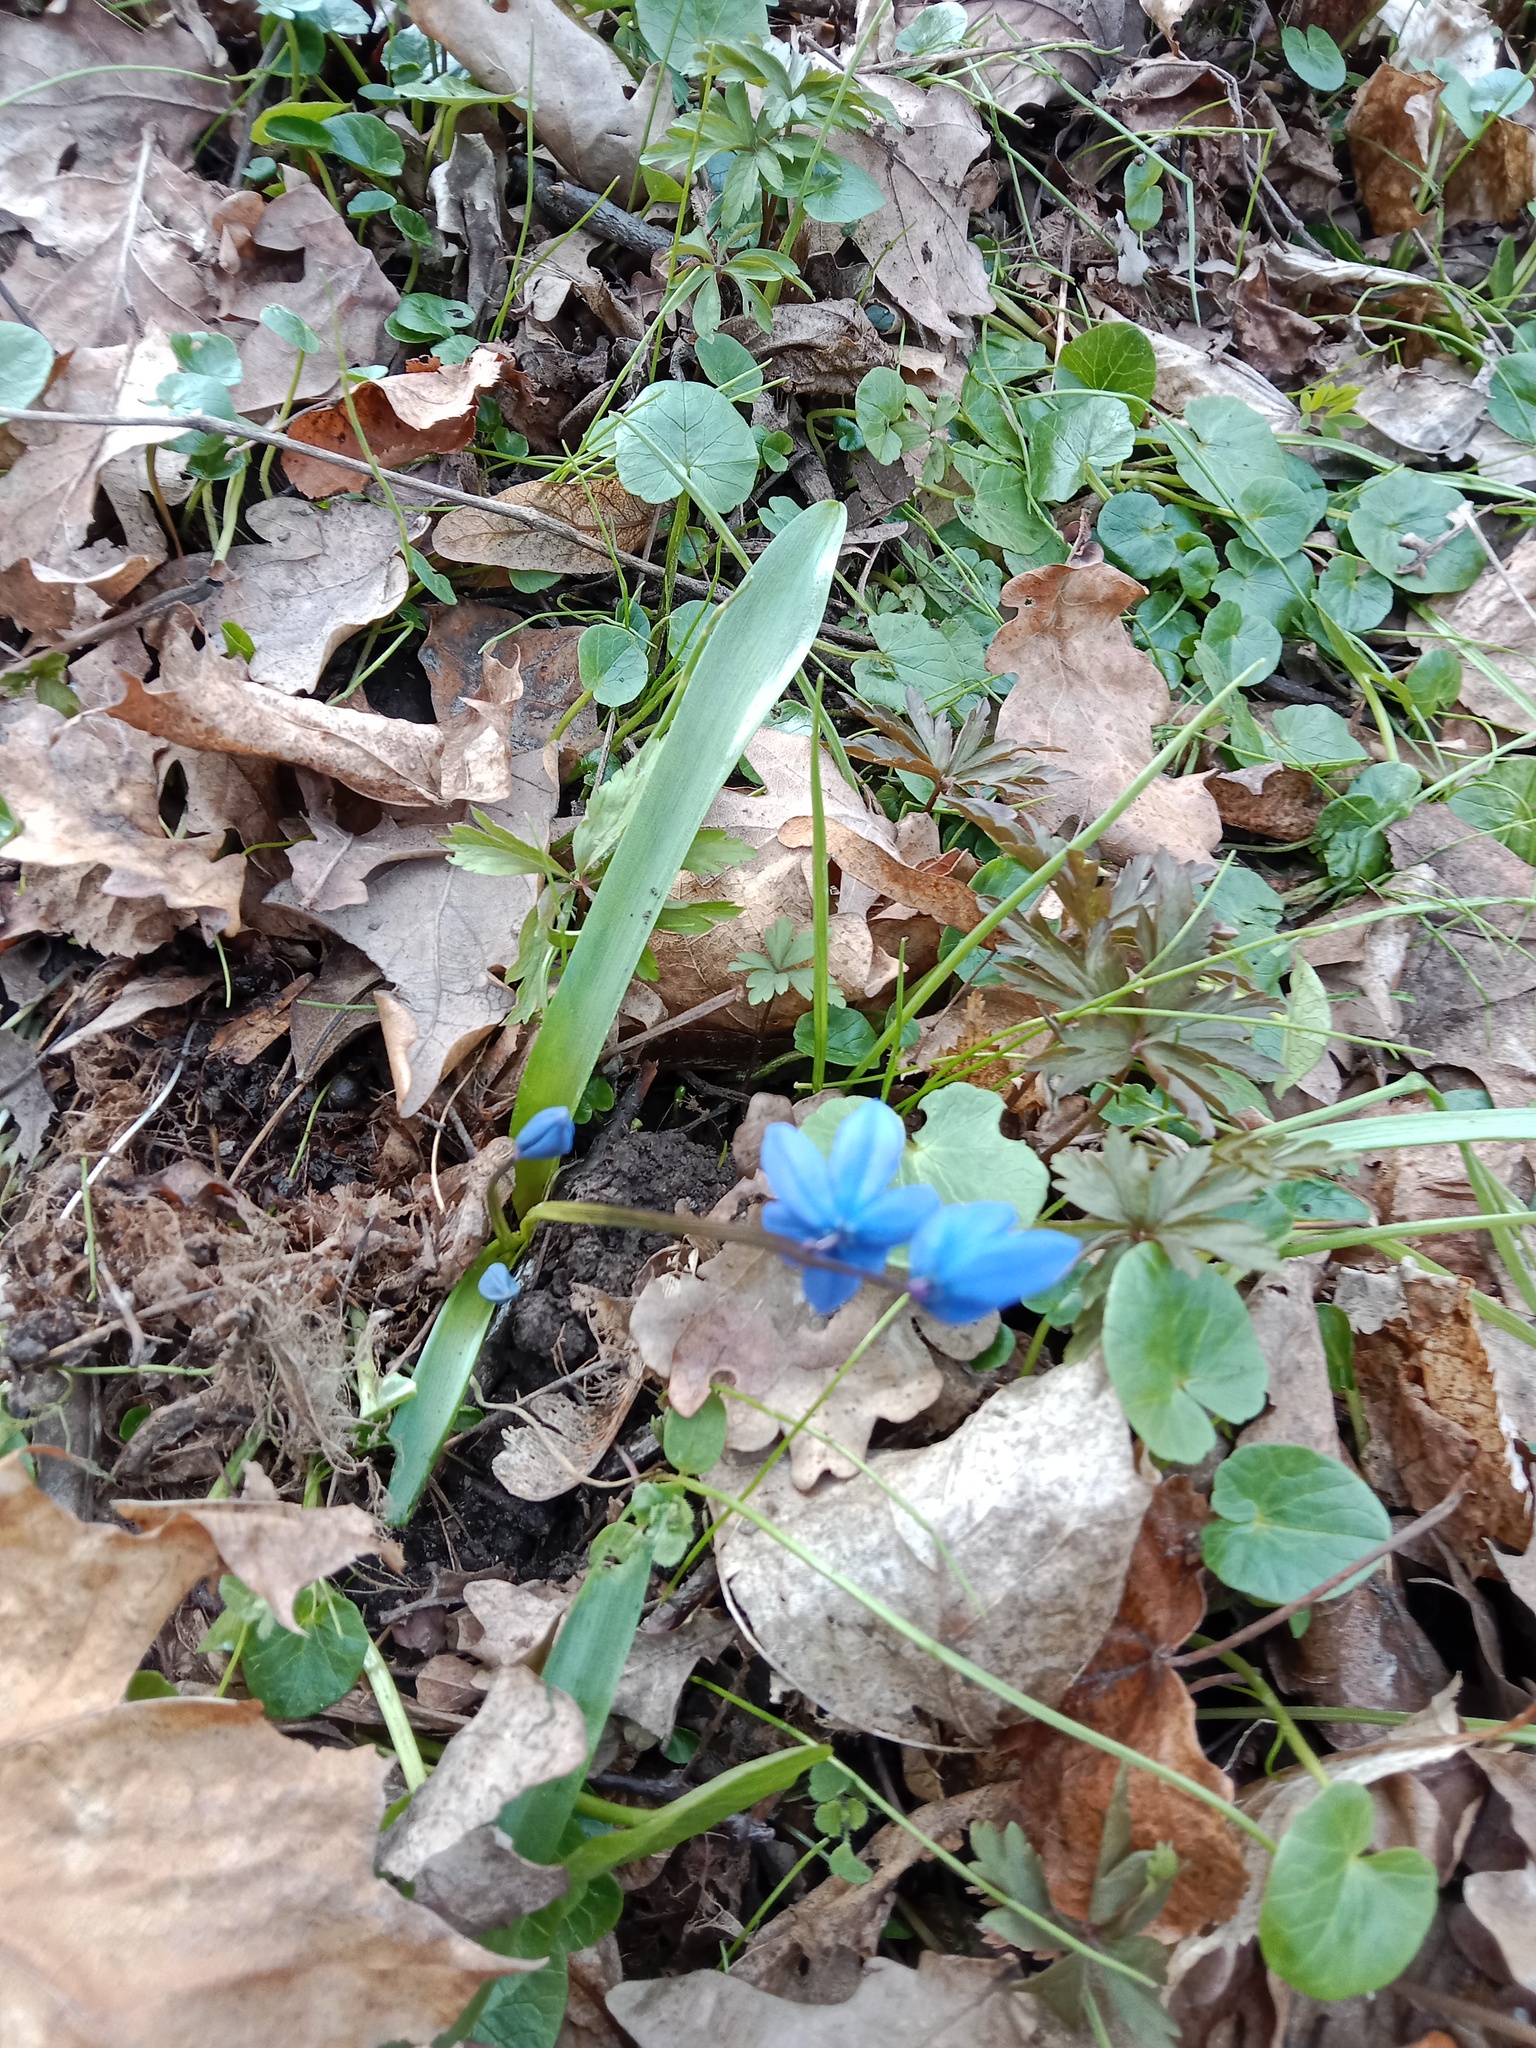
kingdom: Plantae
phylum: Tracheophyta
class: Liliopsida
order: Asparagales
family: Asparagaceae
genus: Scilla
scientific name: Scilla siberica
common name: Siberian squill
